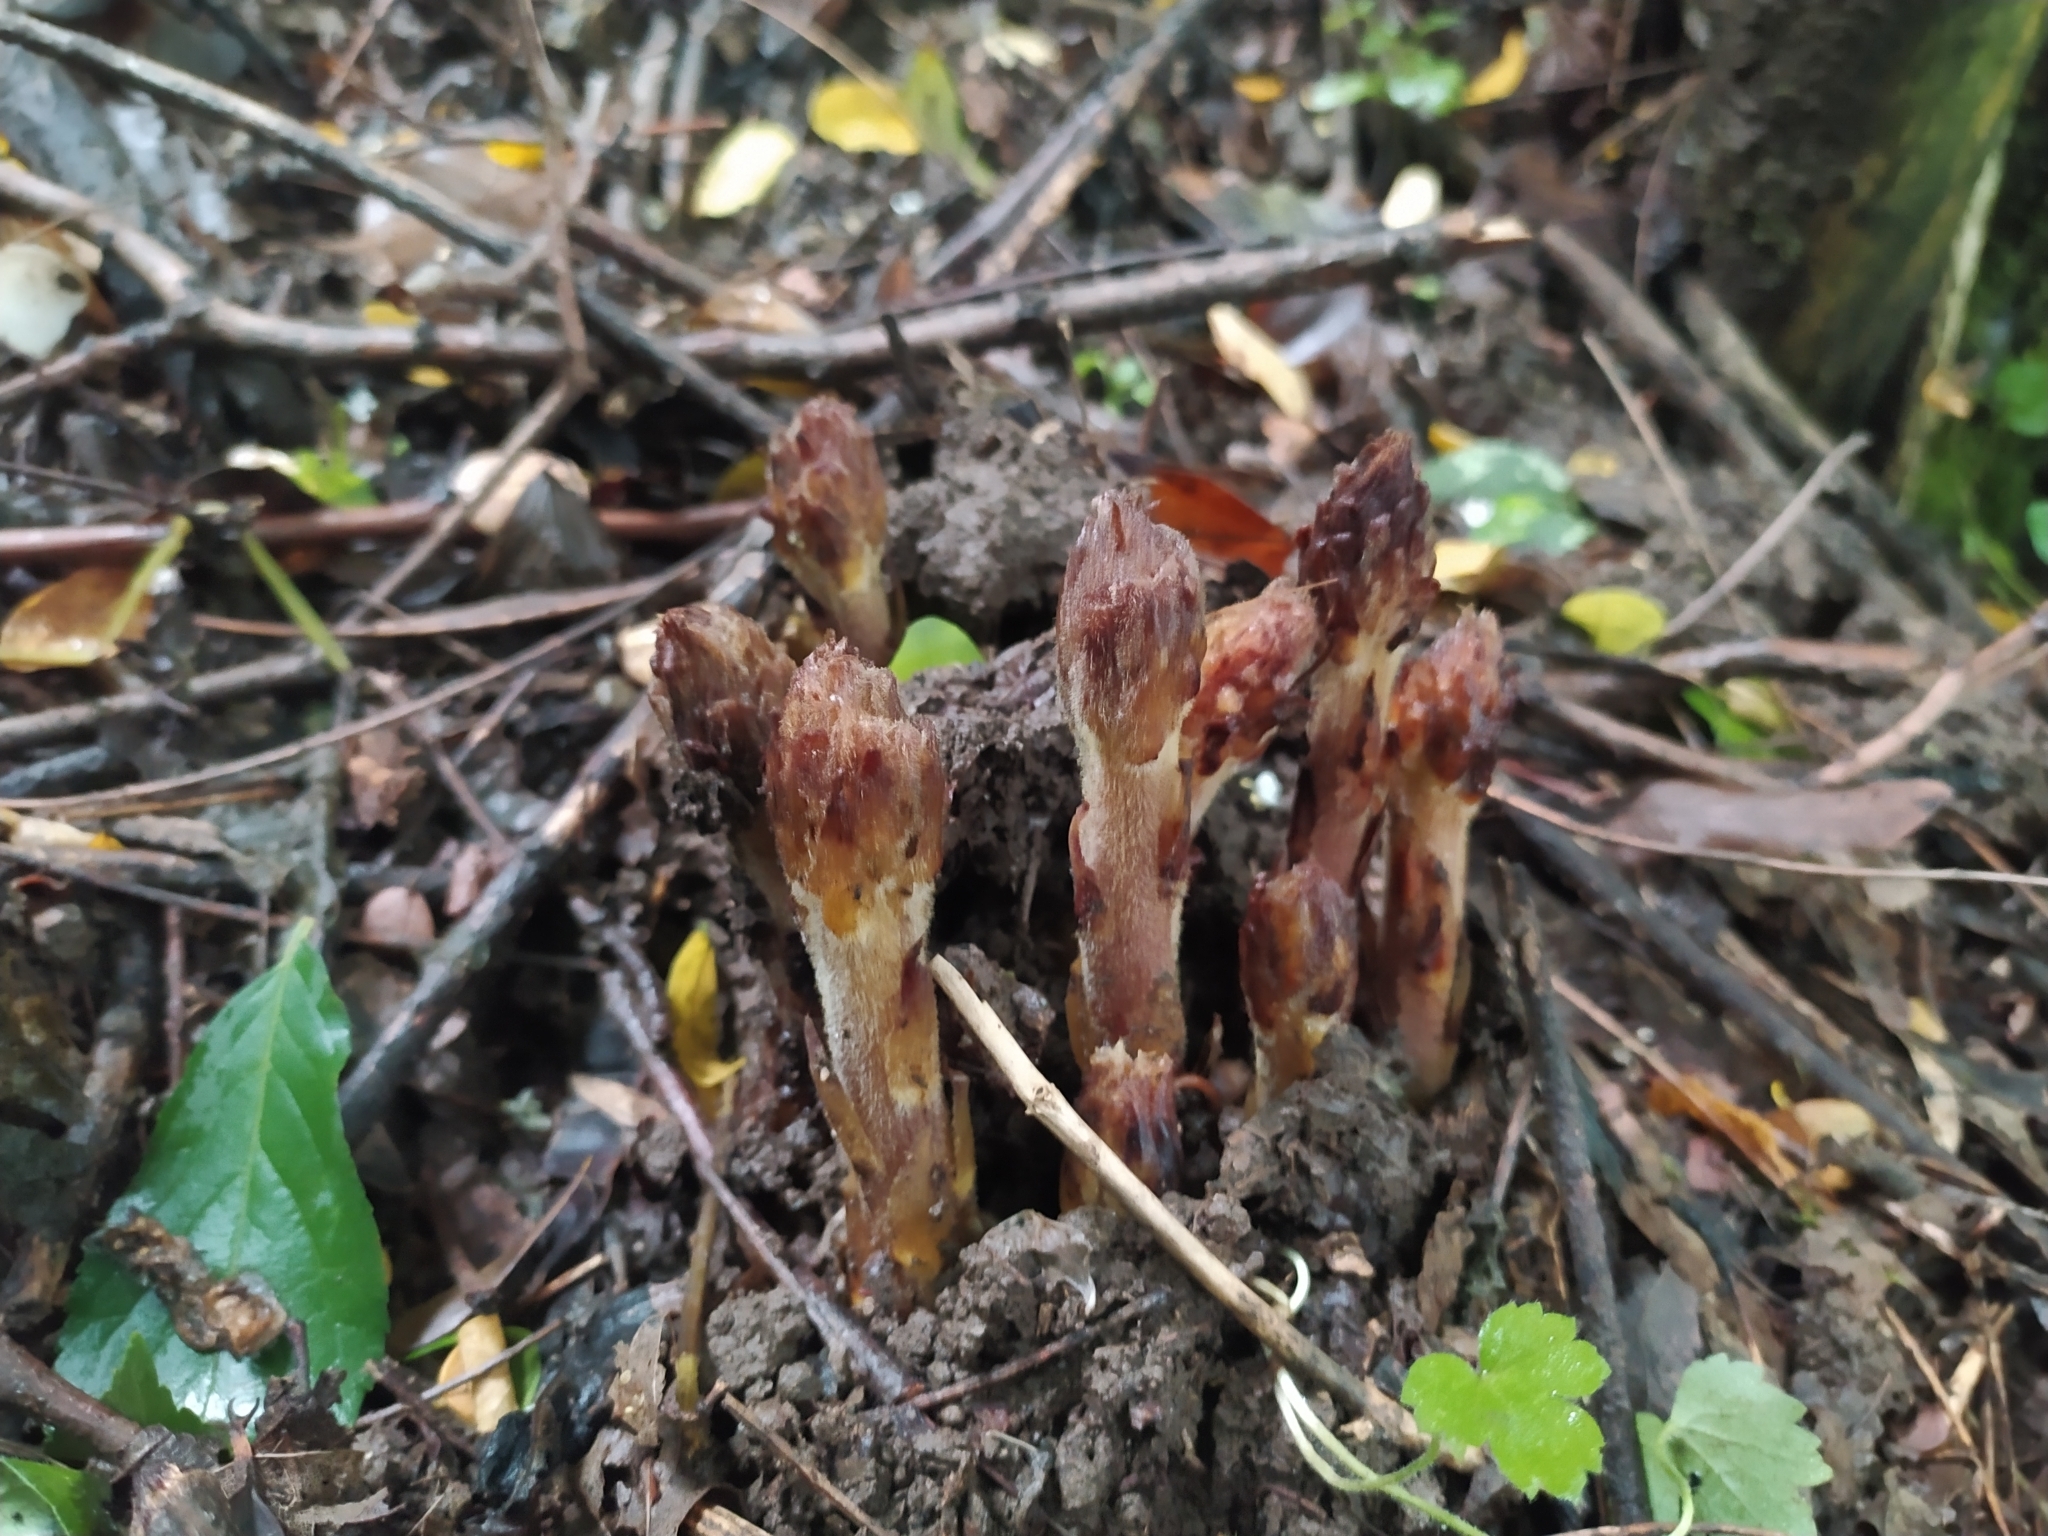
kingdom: Plantae
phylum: Tracheophyta
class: Magnoliopsida
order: Lamiales
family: Orobanchaceae
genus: Orobanche
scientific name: Orobanche ebuli
